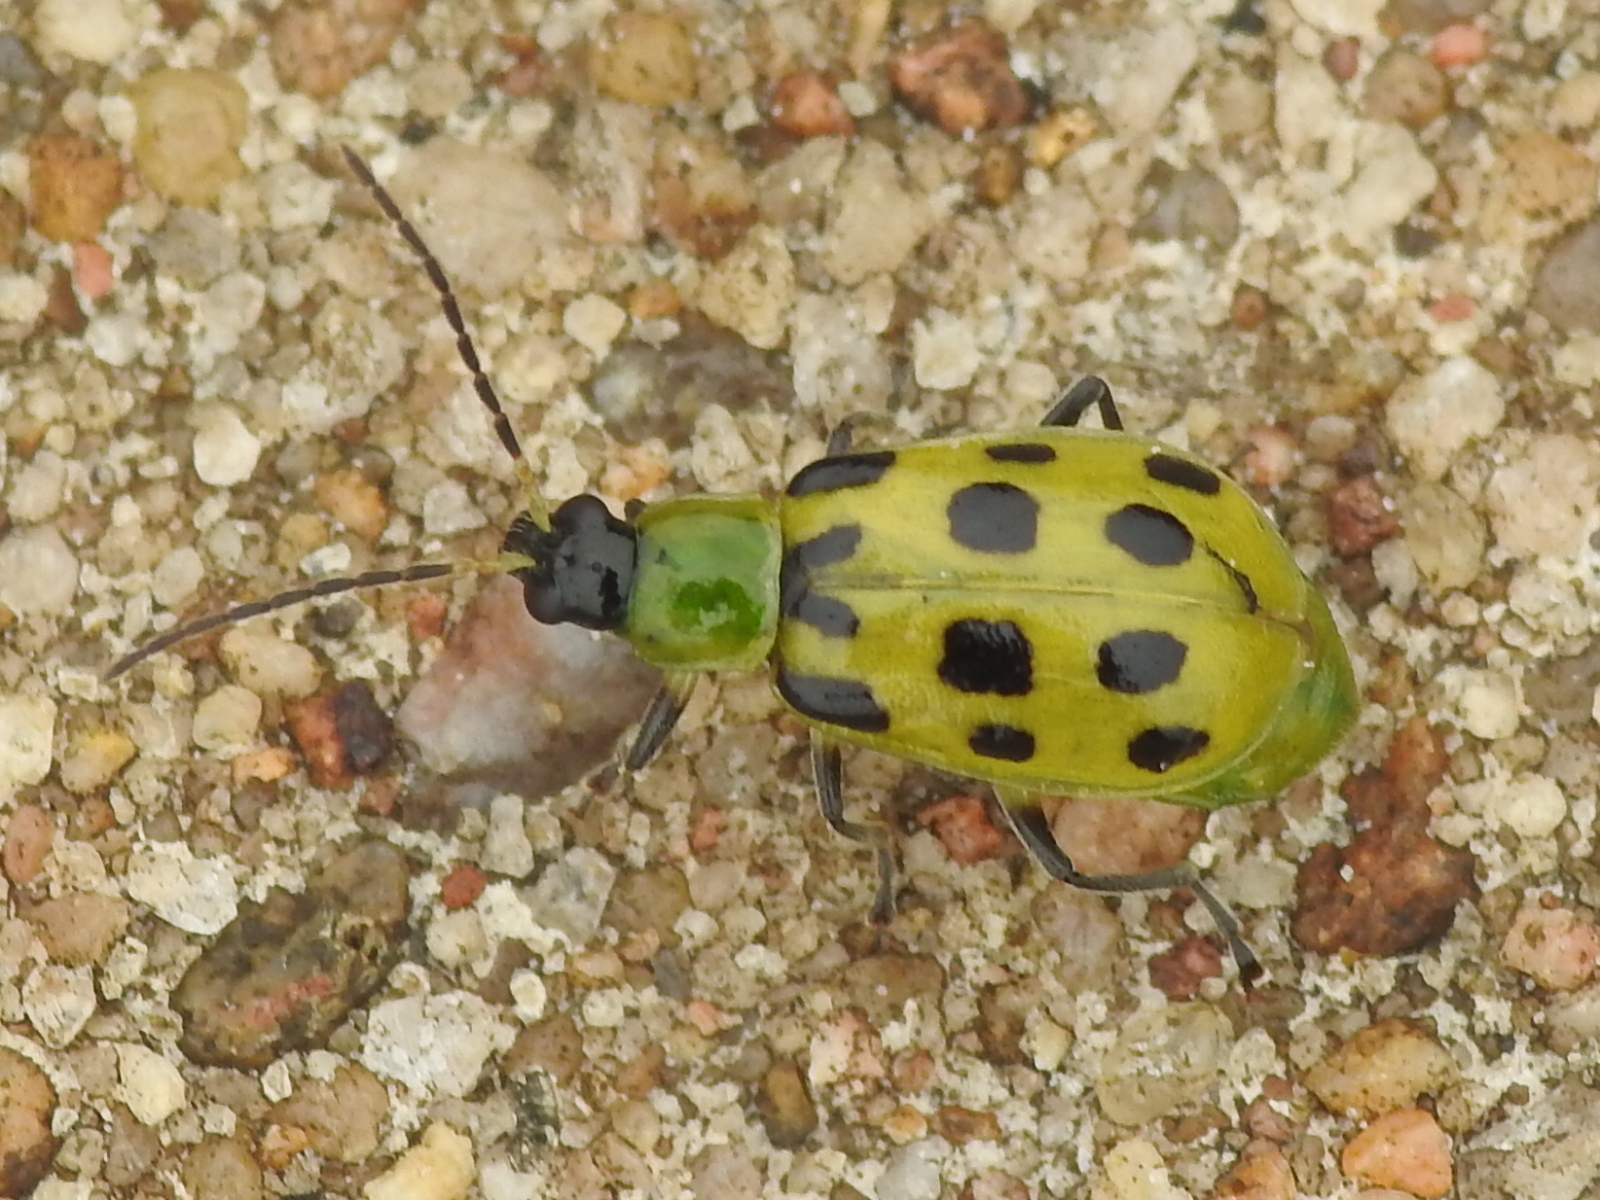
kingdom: Animalia
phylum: Arthropoda
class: Insecta
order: Coleoptera
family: Chrysomelidae
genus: Diabrotica
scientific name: Diabrotica undecimpunctata
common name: Spotted cucumber beetle
